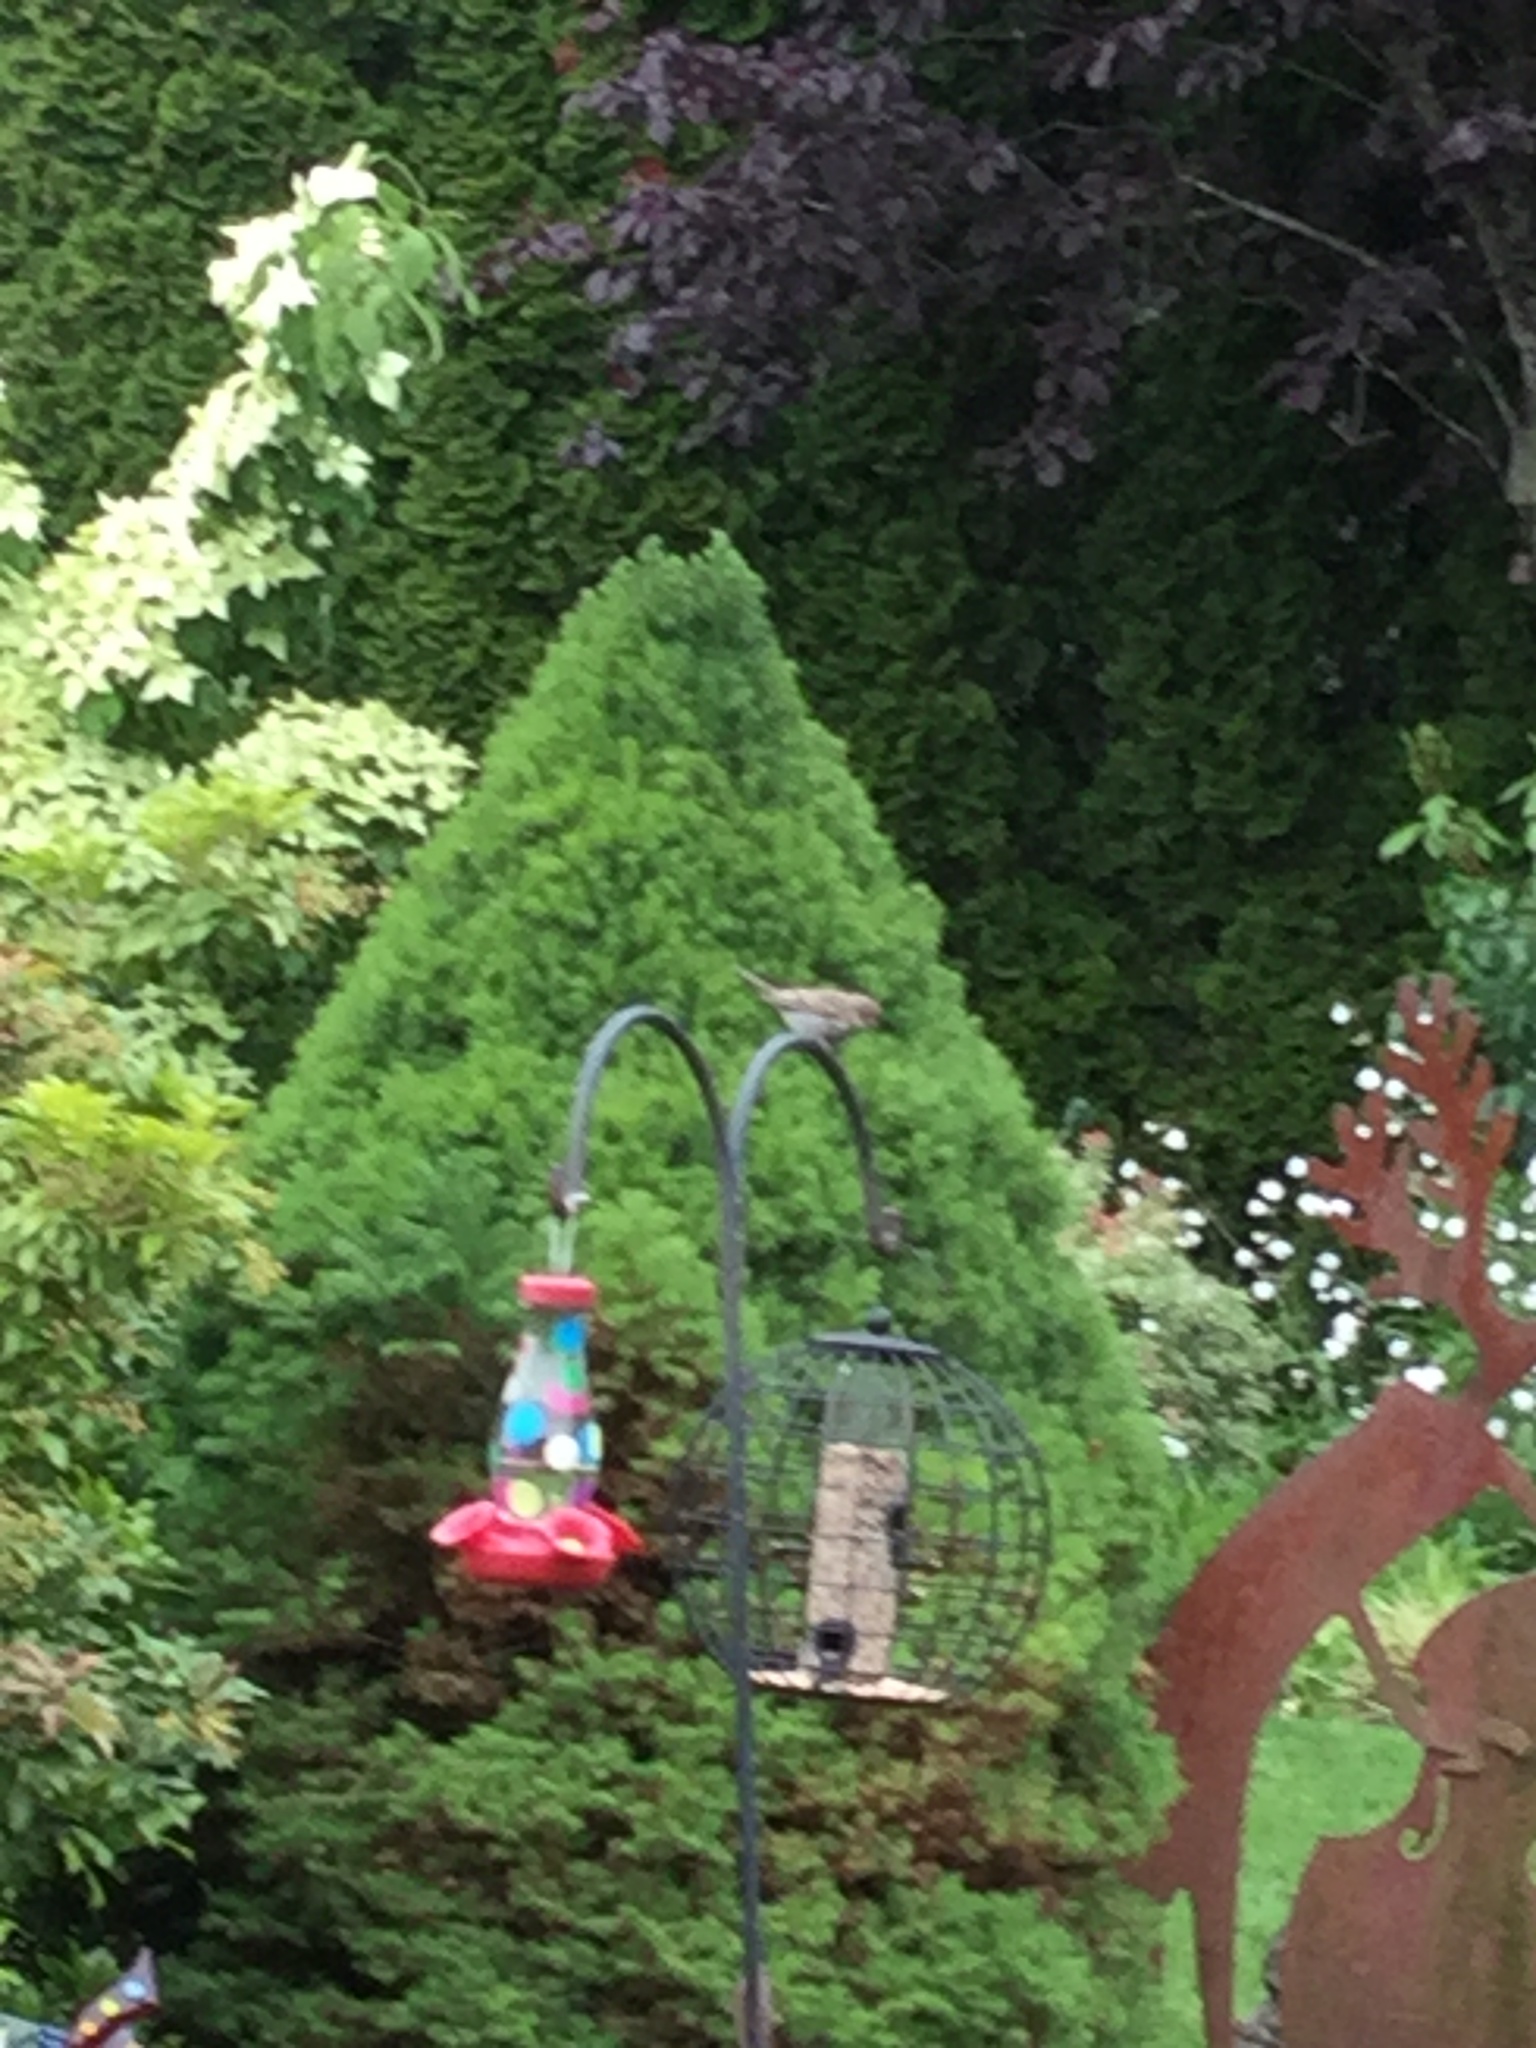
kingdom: Animalia
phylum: Chordata
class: Aves
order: Passeriformes
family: Passeridae
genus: Passer
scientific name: Passer domesticus
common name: House sparrow
